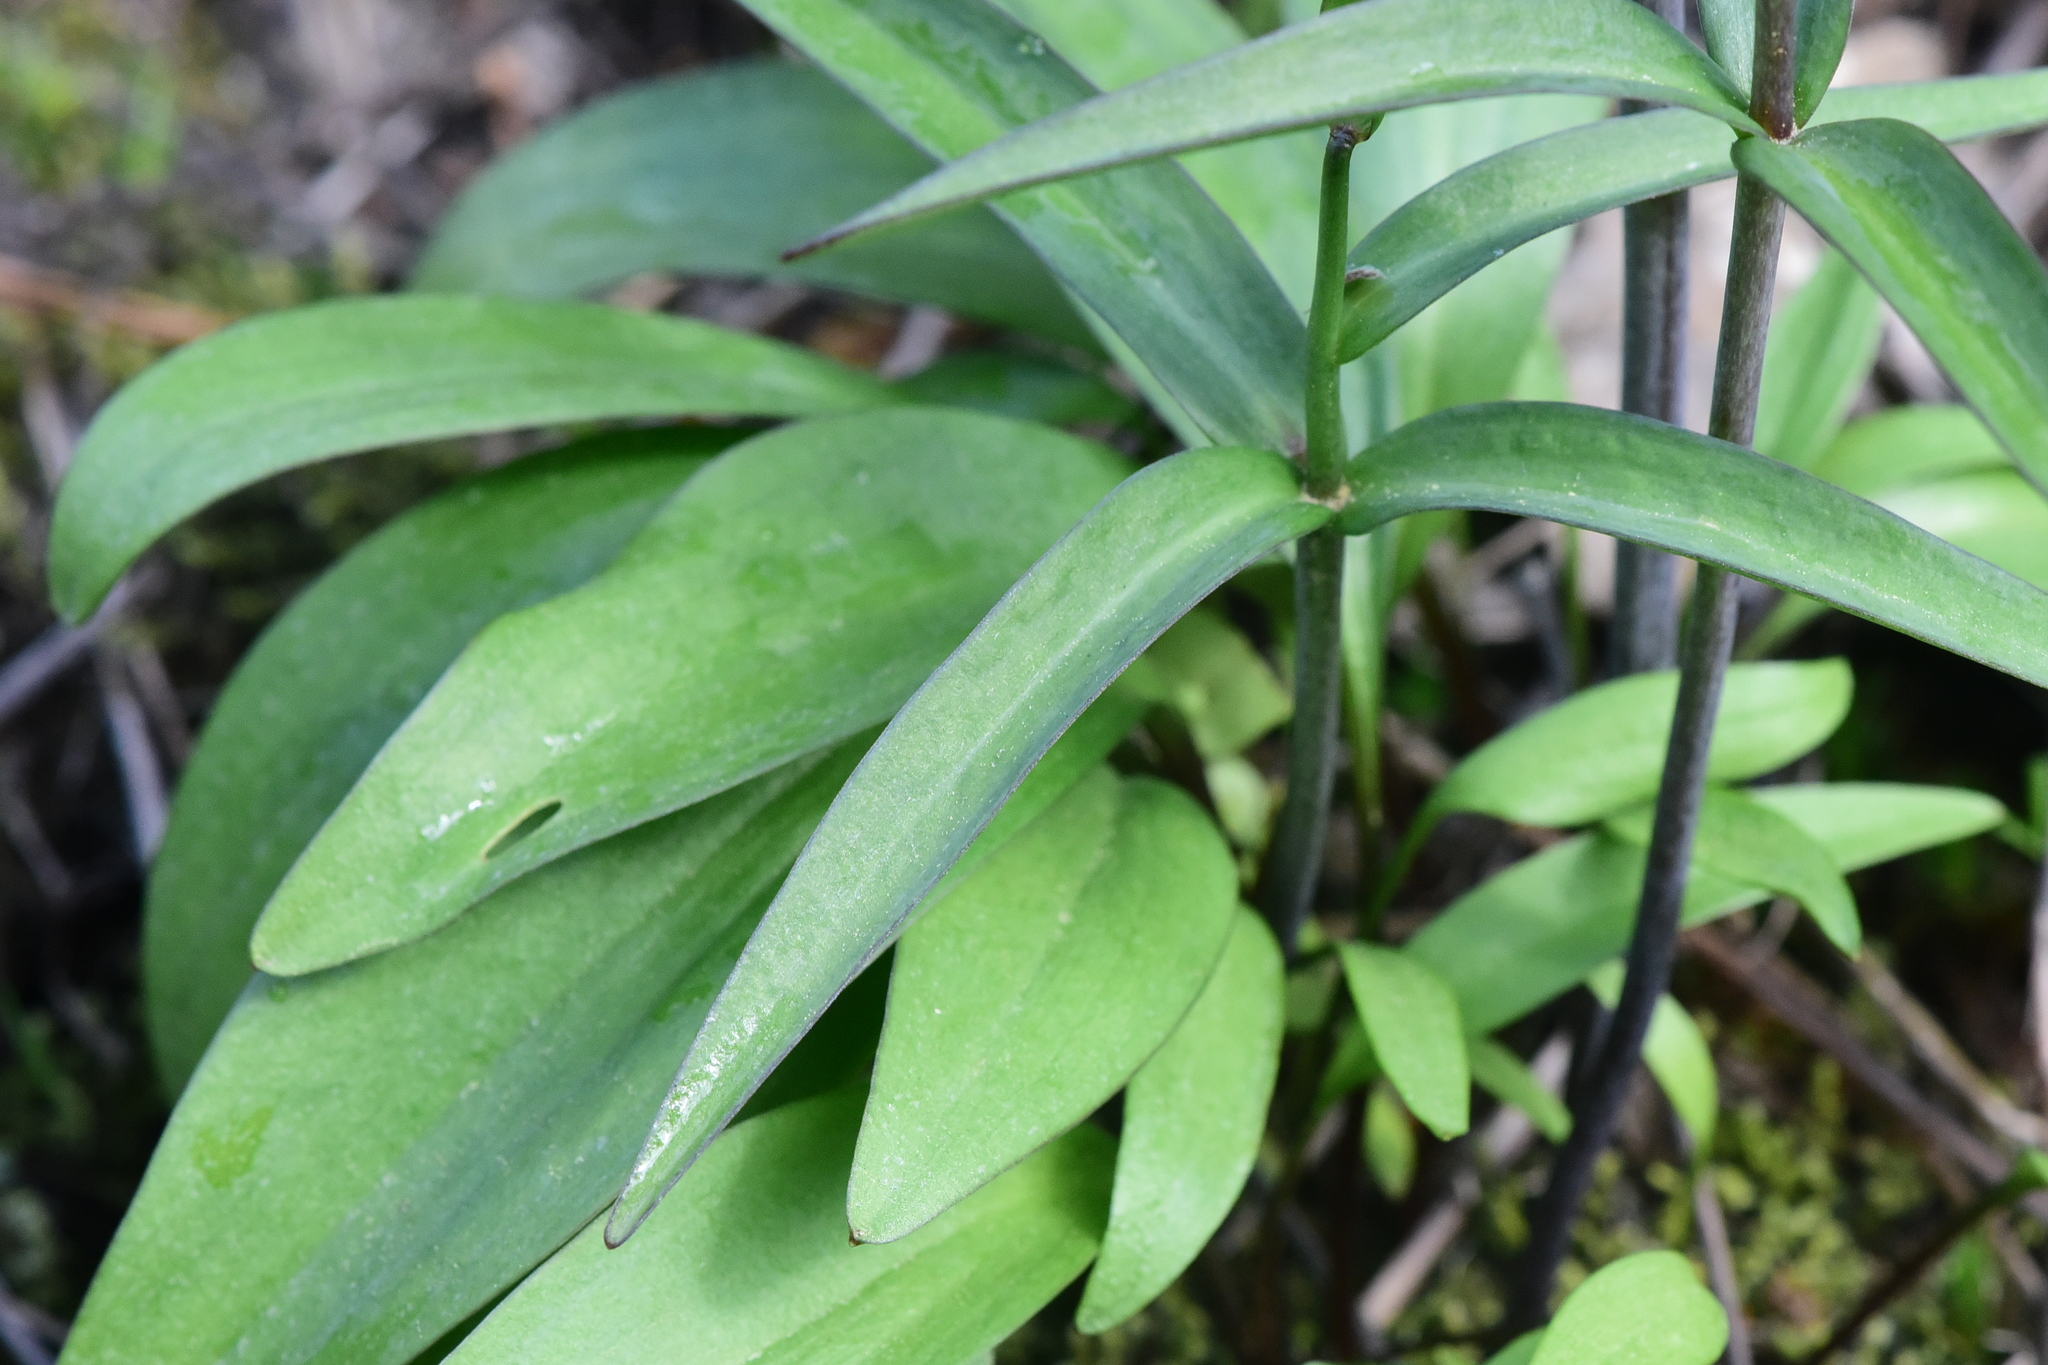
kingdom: Plantae
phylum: Tracheophyta
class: Liliopsida
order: Liliales
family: Liliaceae
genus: Fritillaria
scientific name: Fritillaria affinis
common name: Ojai fritillary
